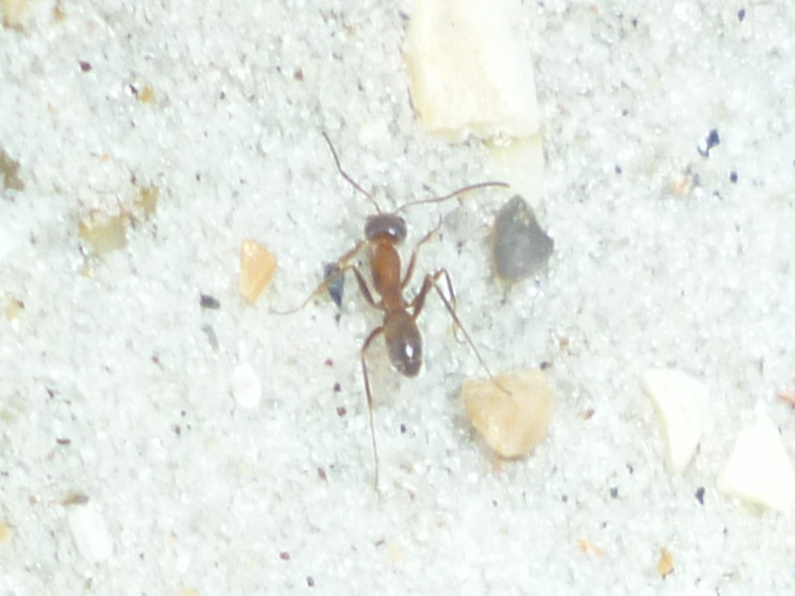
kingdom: Animalia
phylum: Arthropoda
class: Insecta
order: Hymenoptera
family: Formicidae
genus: Dorymyrmex
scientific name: Dorymyrmex bureni
